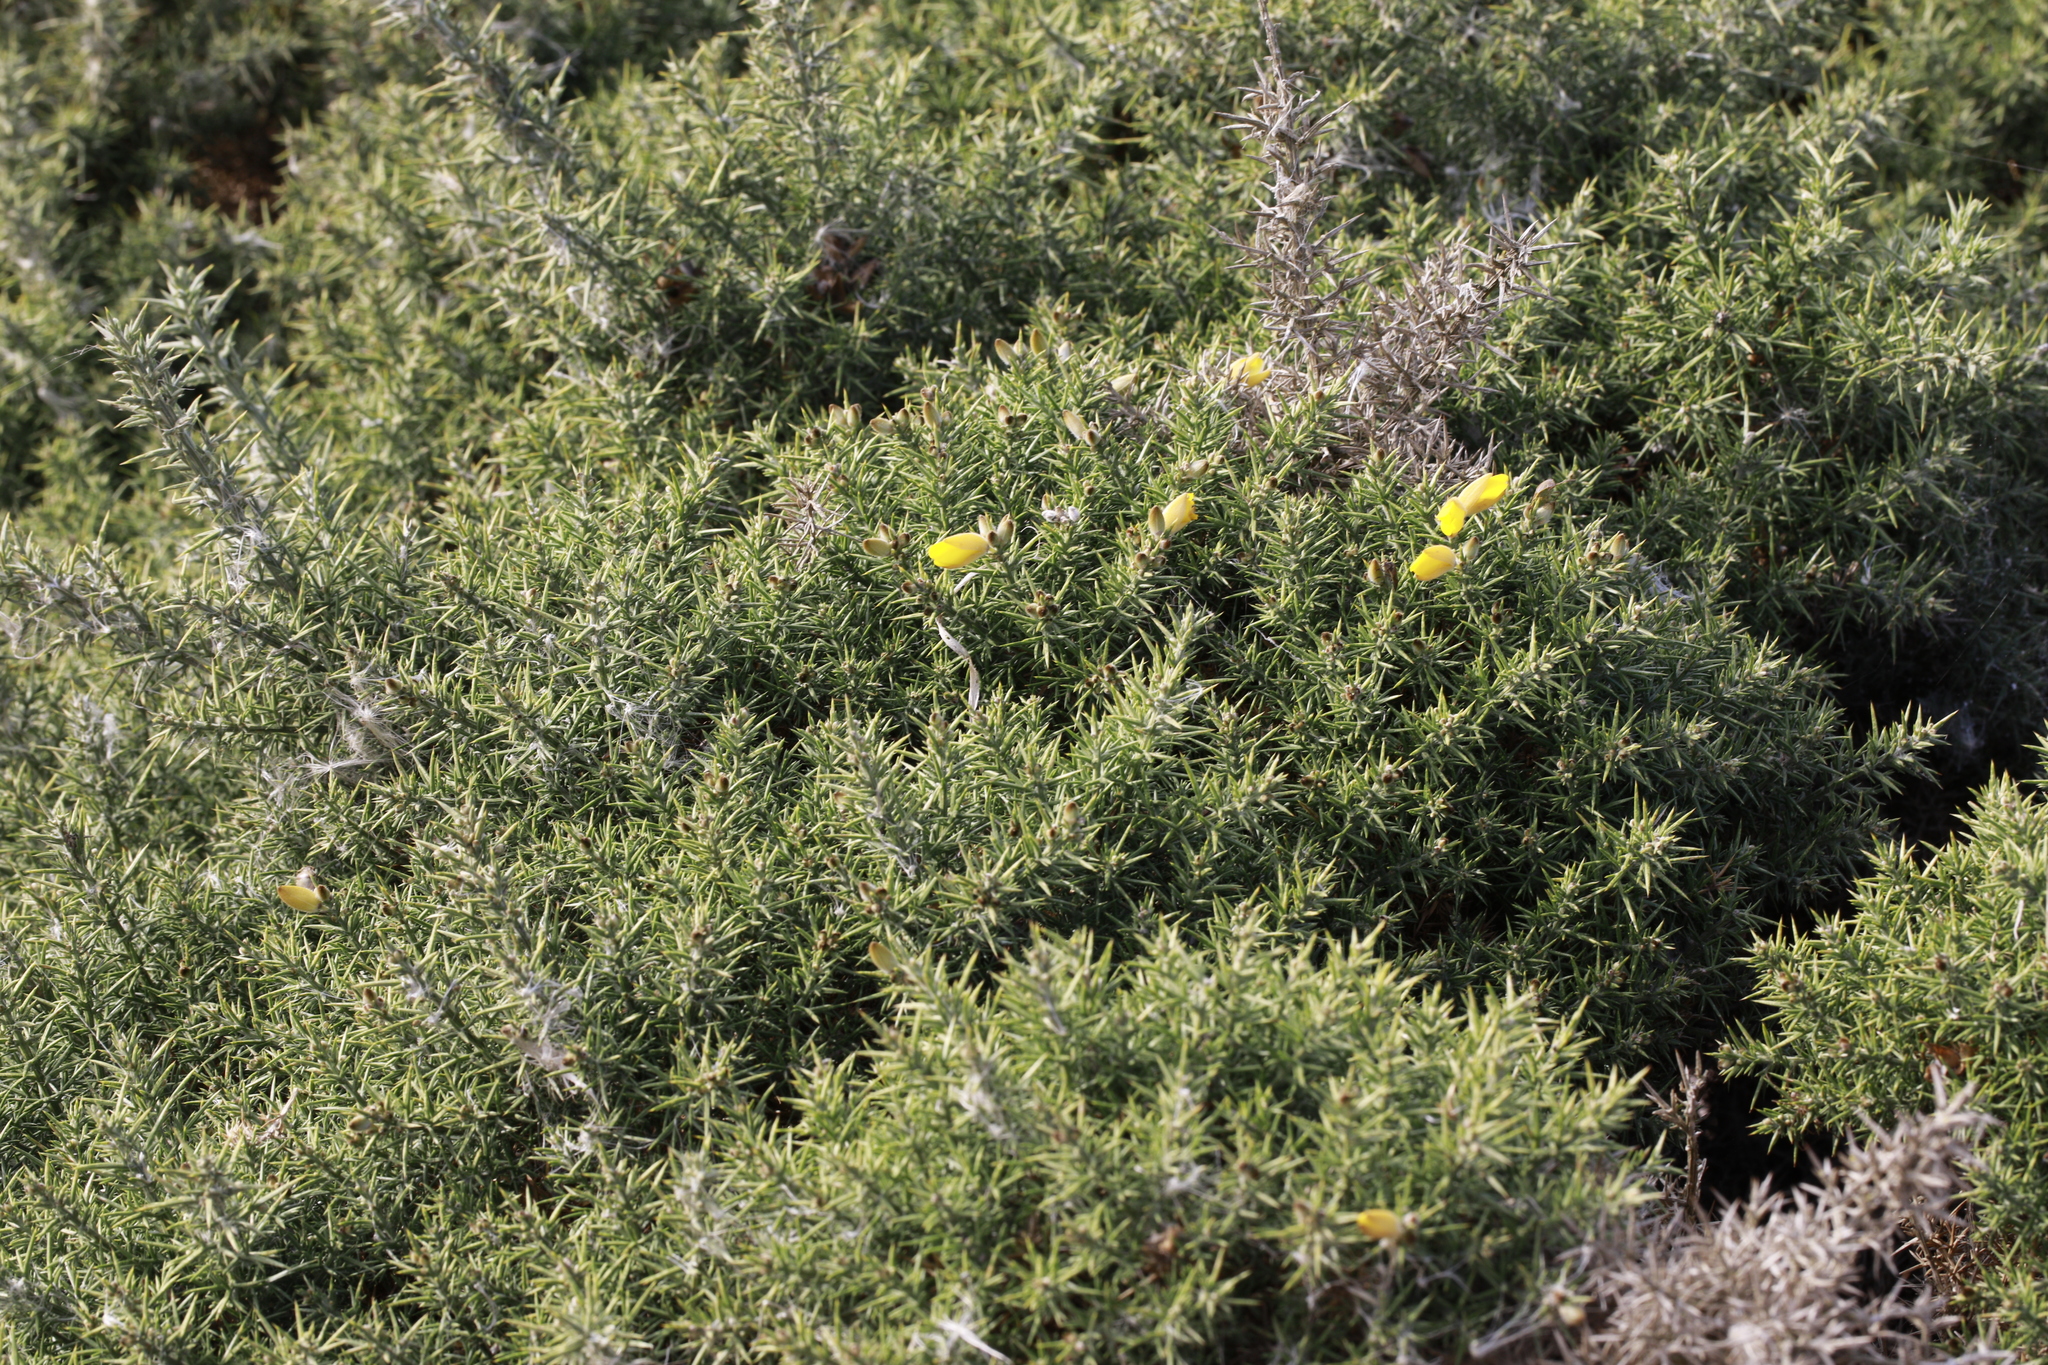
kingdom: Plantae
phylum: Tracheophyta
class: Magnoliopsida
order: Fabales
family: Fabaceae
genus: Ulex
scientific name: Ulex europaeus
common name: Common gorse
